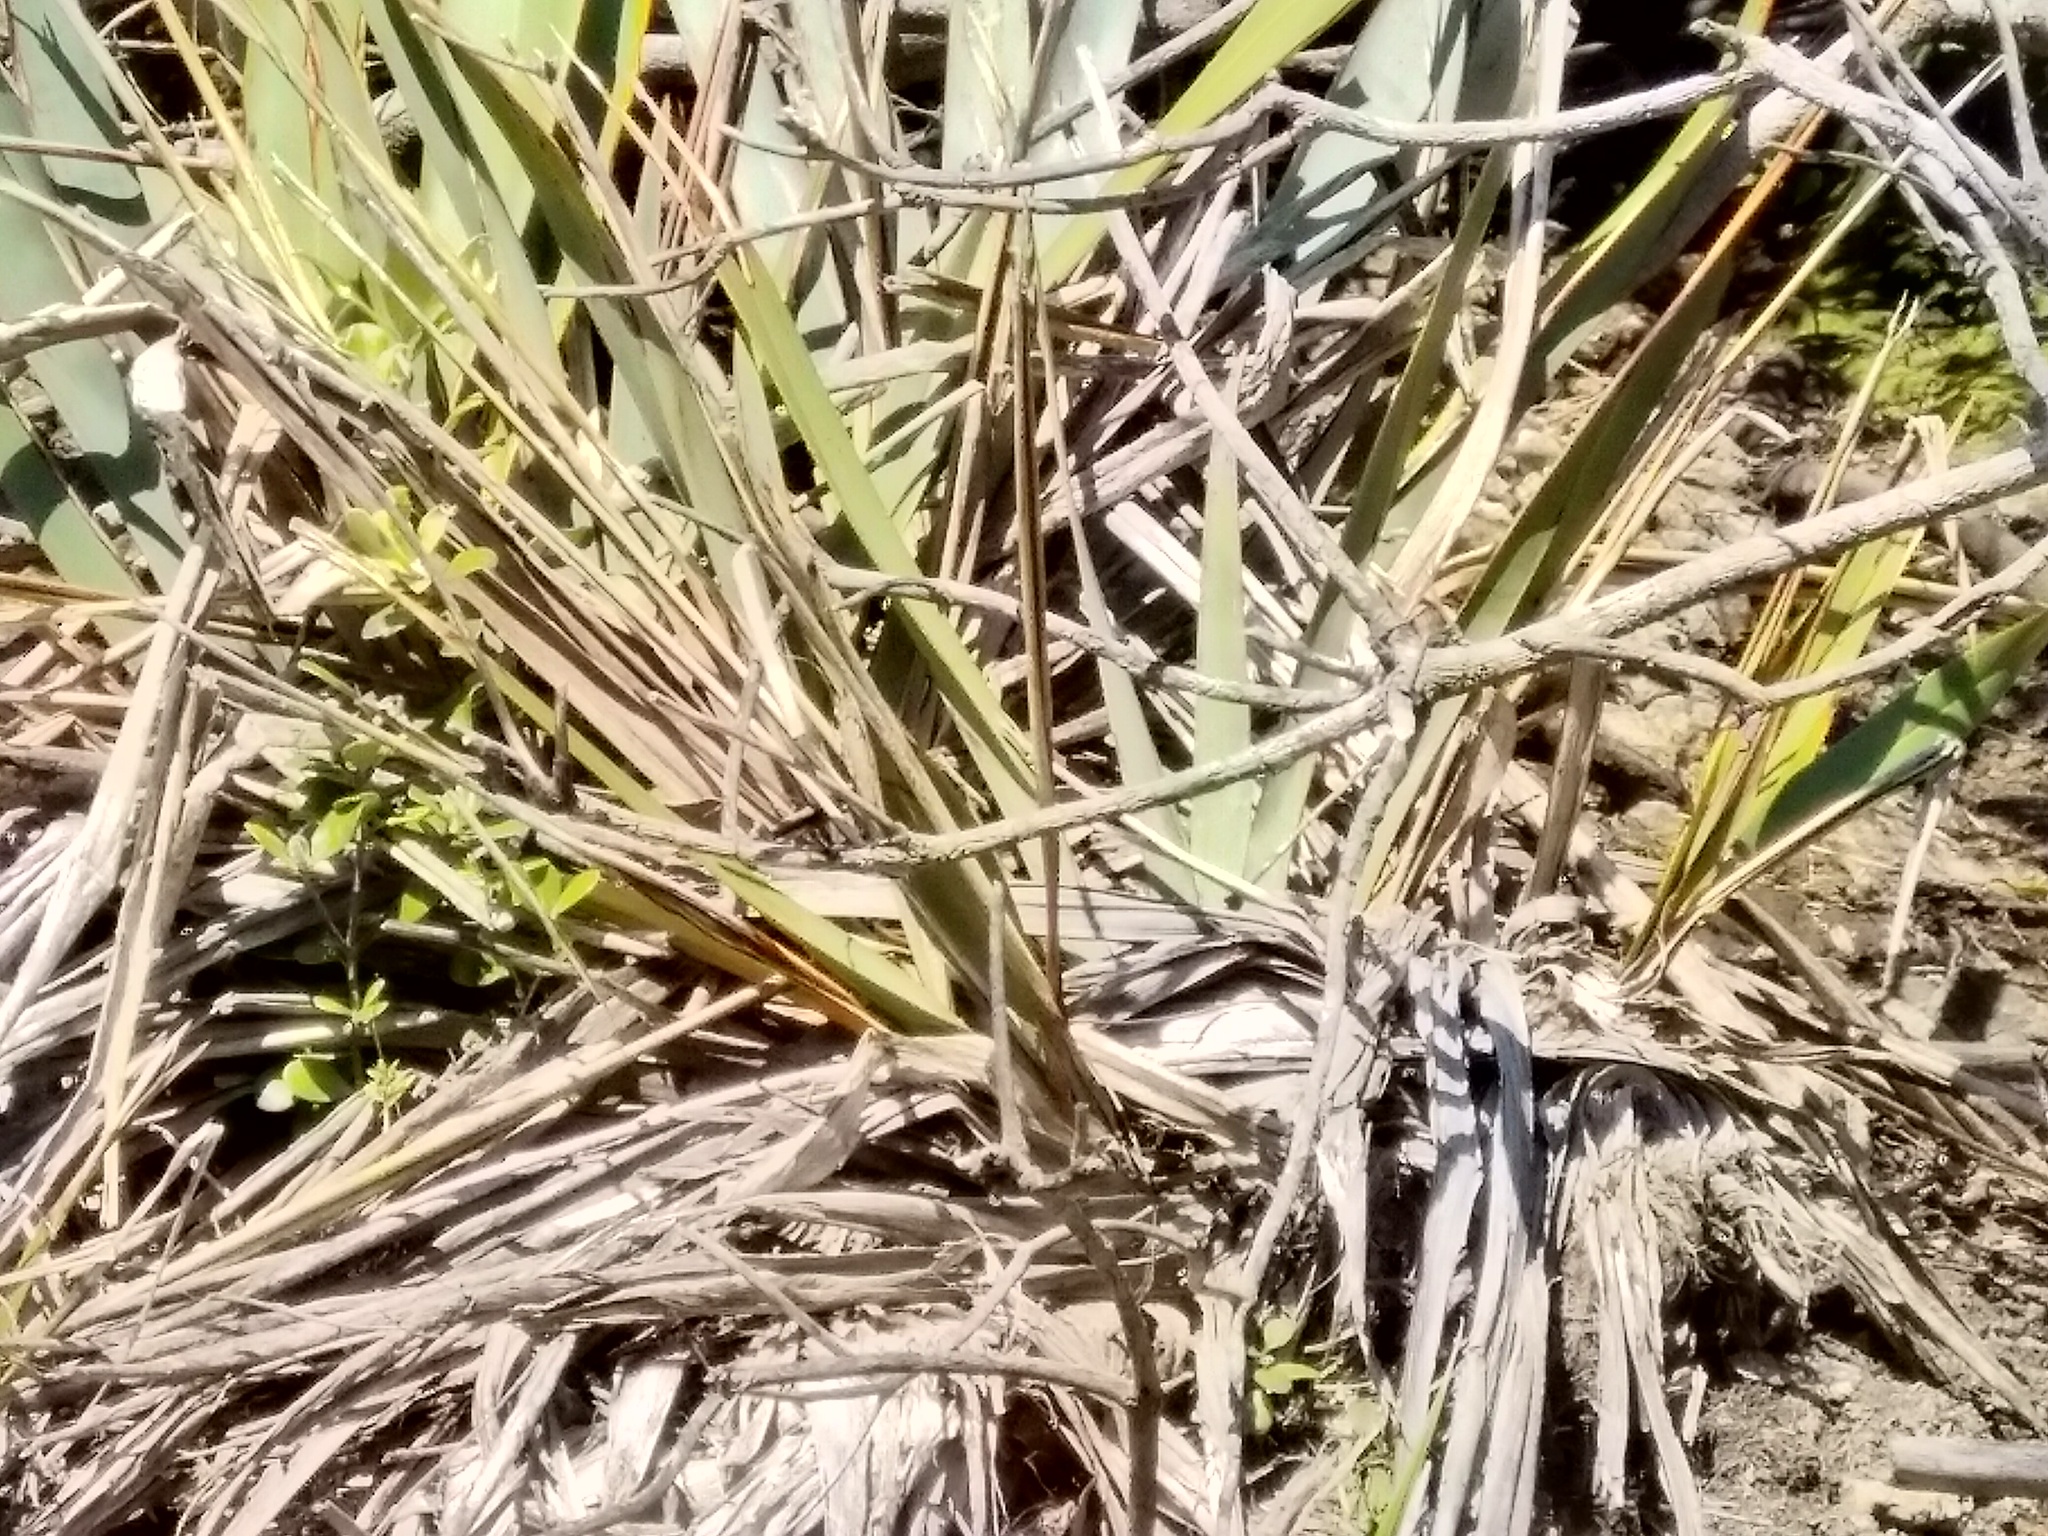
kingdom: Plantae
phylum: Tracheophyta
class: Liliopsida
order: Asparagales
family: Asphodelaceae
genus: Phormium
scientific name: Phormium tenax
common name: New zealand flax
